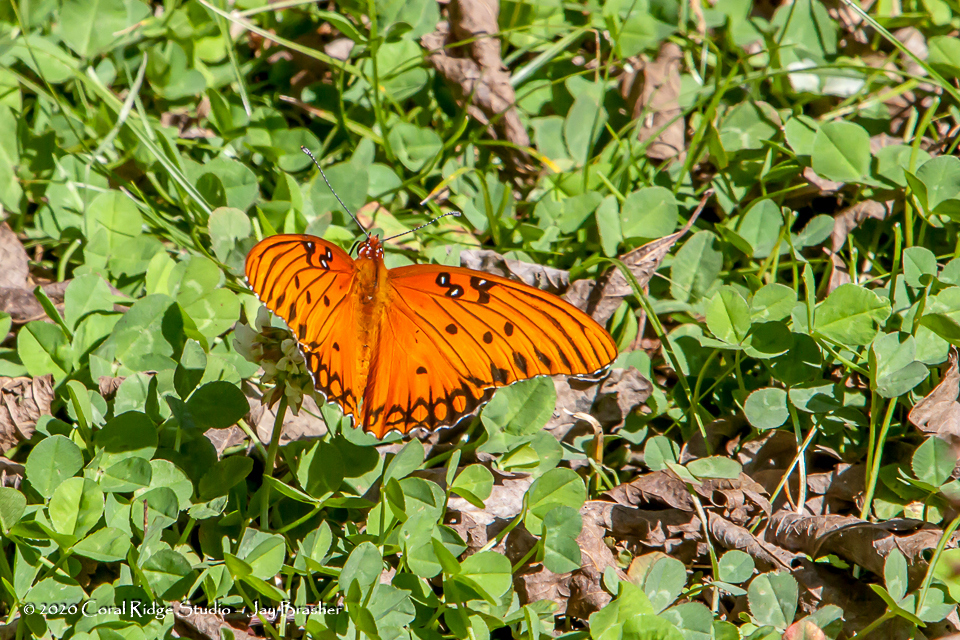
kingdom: Animalia
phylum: Arthropoda
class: Insecta
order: Lepidoptera
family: Nymphalidae
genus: Dione
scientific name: Dione vanillae
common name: Gulf fritillary
